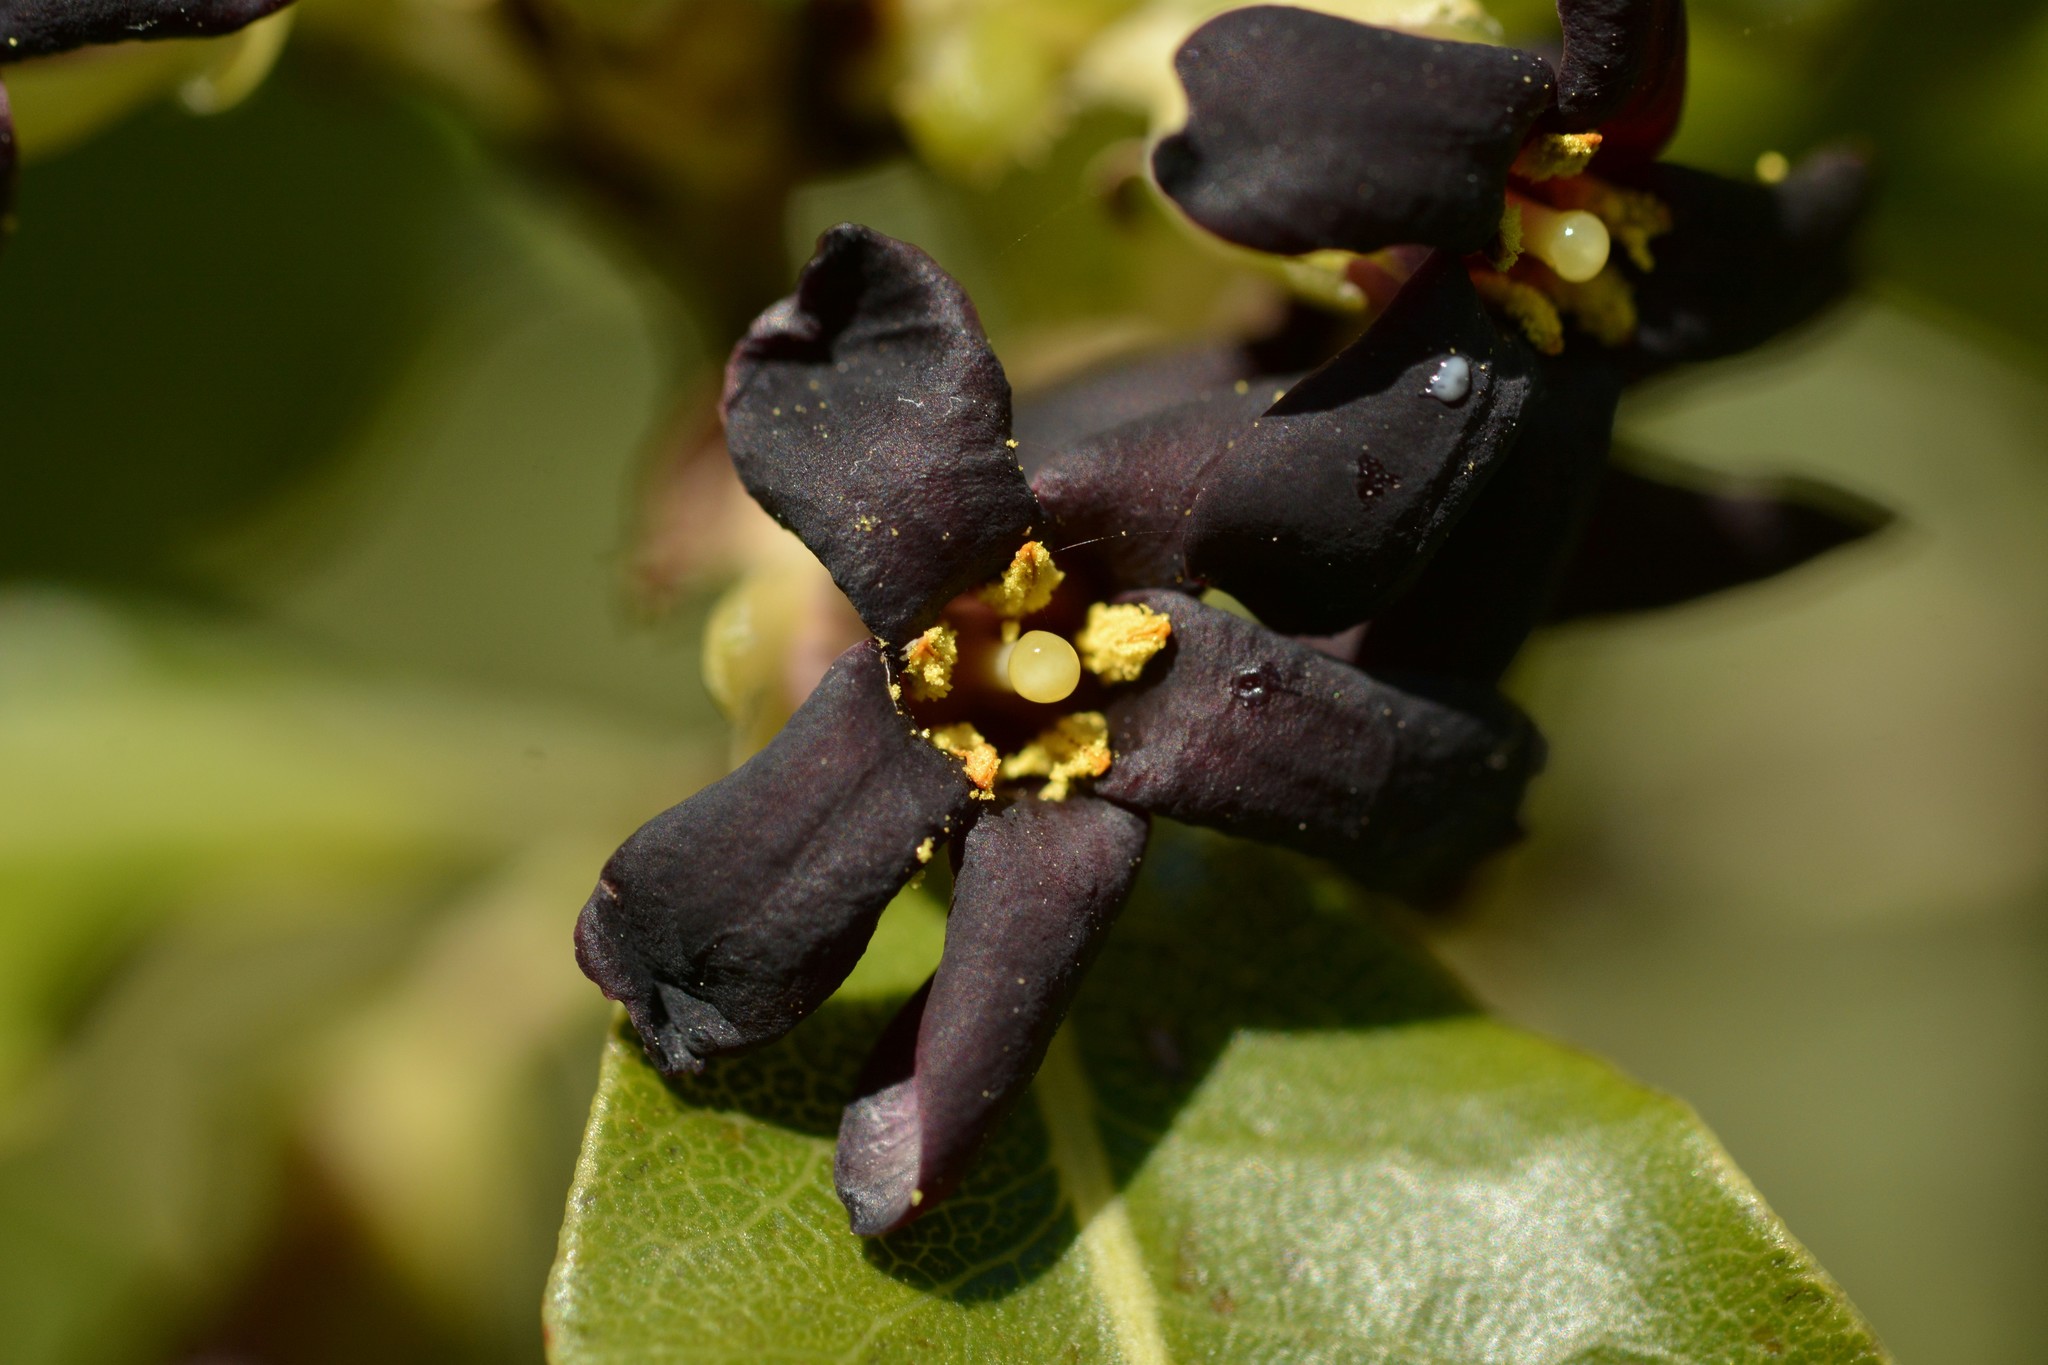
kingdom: Plantae
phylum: Tracheophyta
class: Magnoliopsida
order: Apiales
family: Pittosporaceae
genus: Pittosporum
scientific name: Pittosporum tenuifolium
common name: Kohuhu
